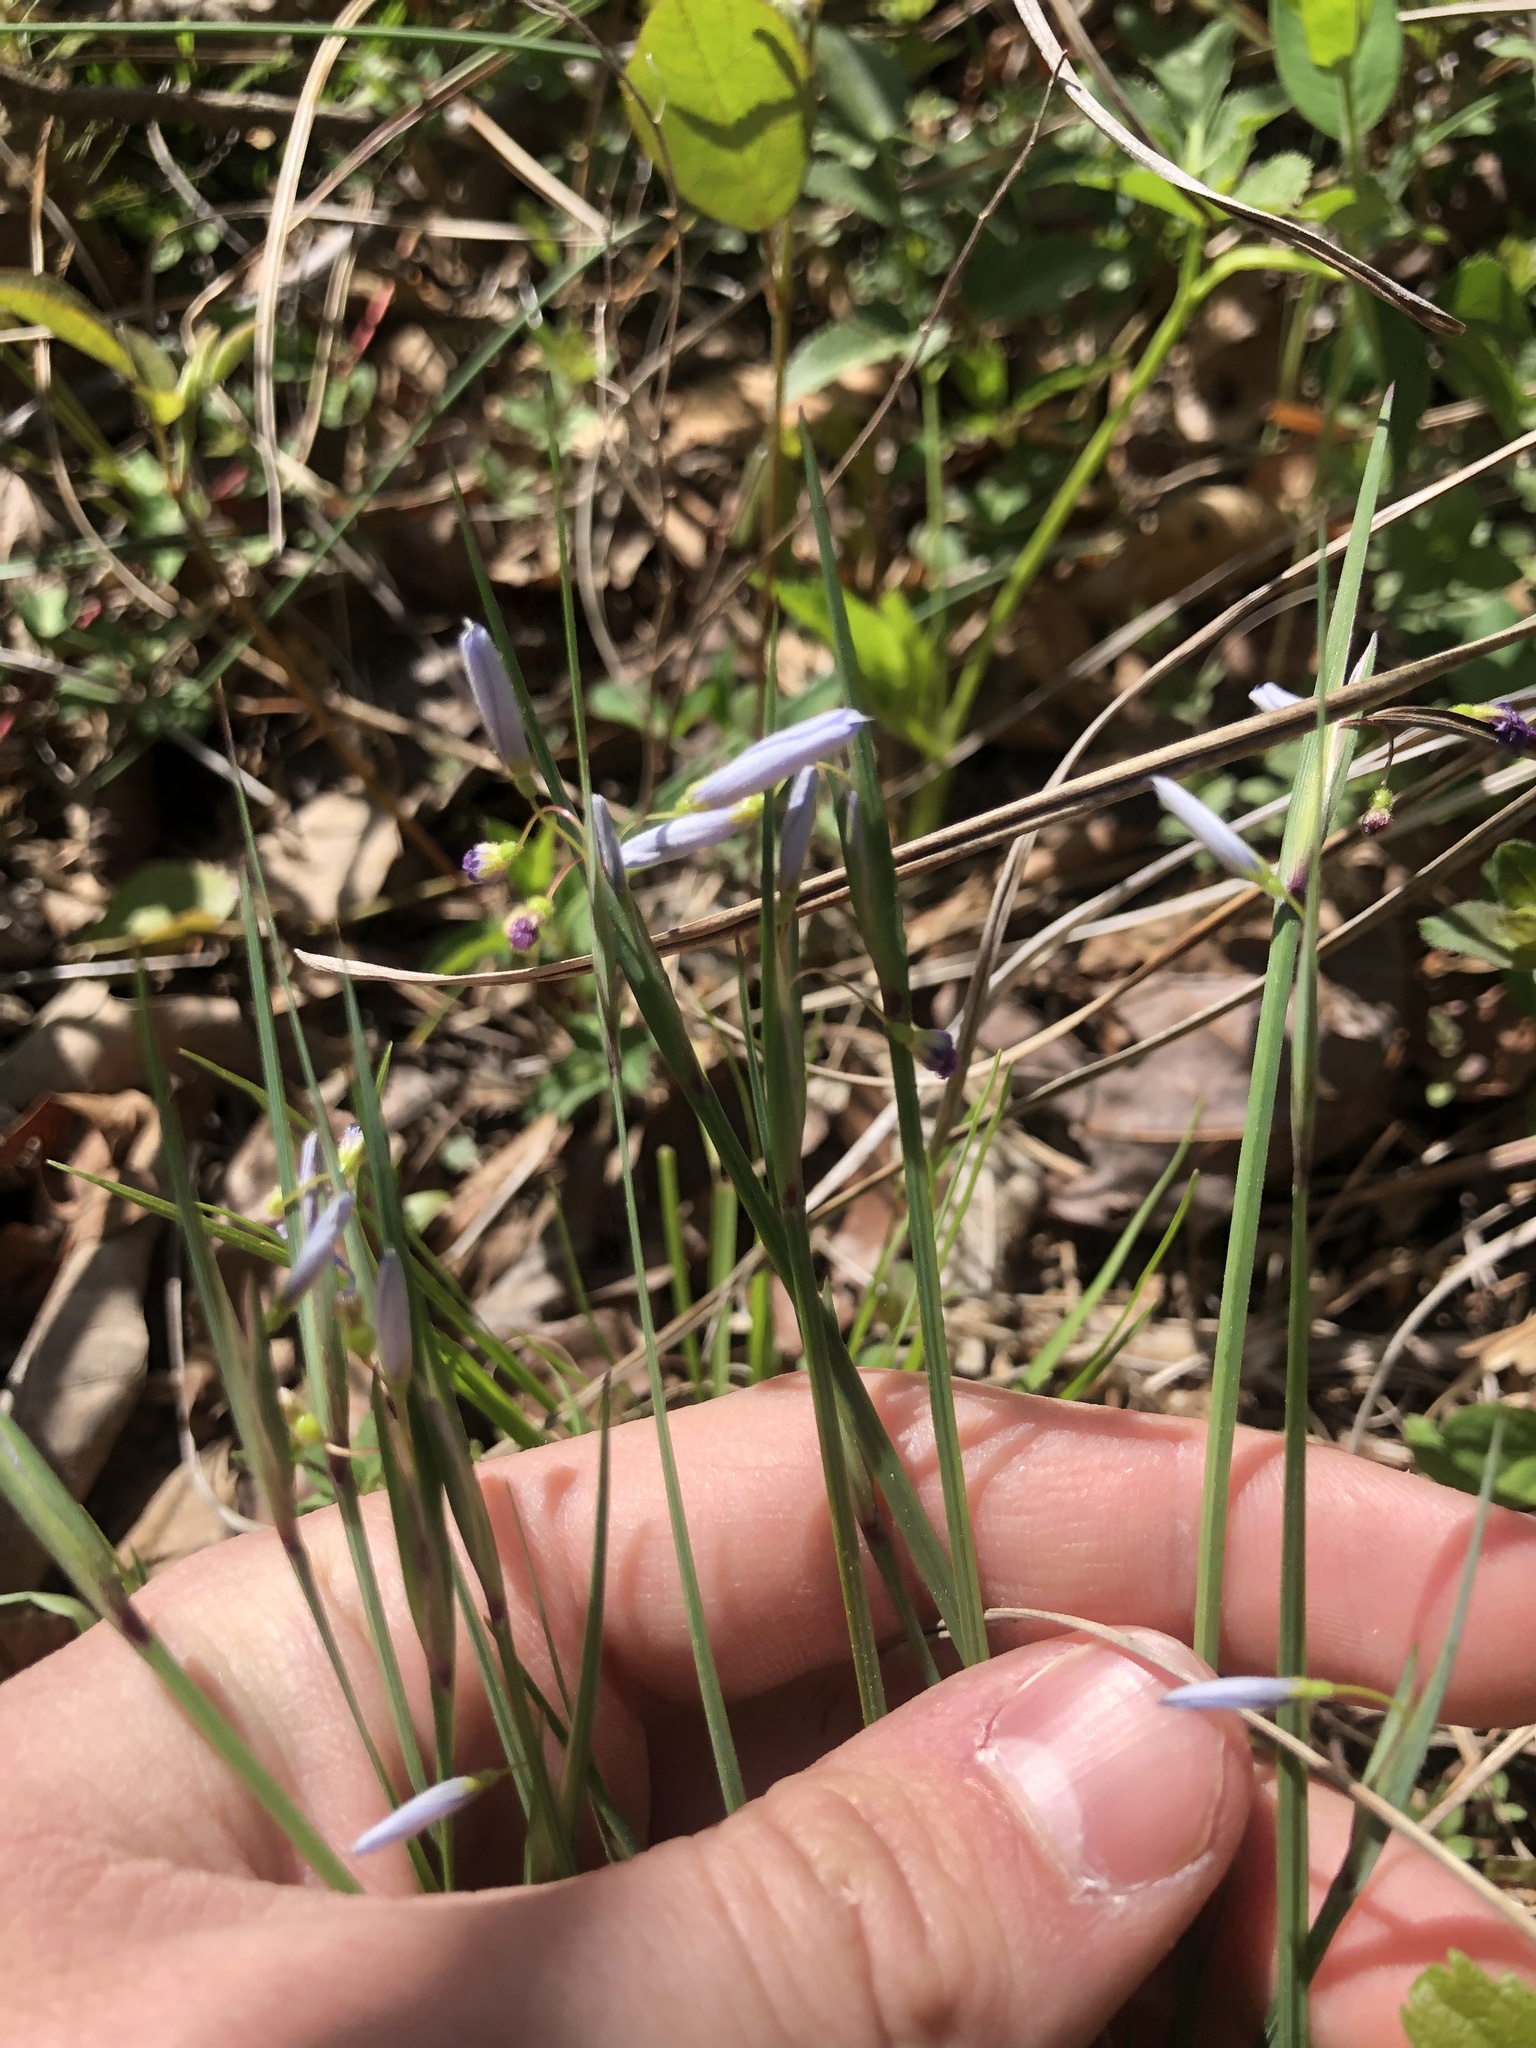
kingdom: Plantae
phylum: Tracheophyta
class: Liliopsida
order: Asparagales
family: Iridaceae
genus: Sisyrinchium
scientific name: Sisyrinchium mucronatum
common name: Eastern blue-eyed-grass
